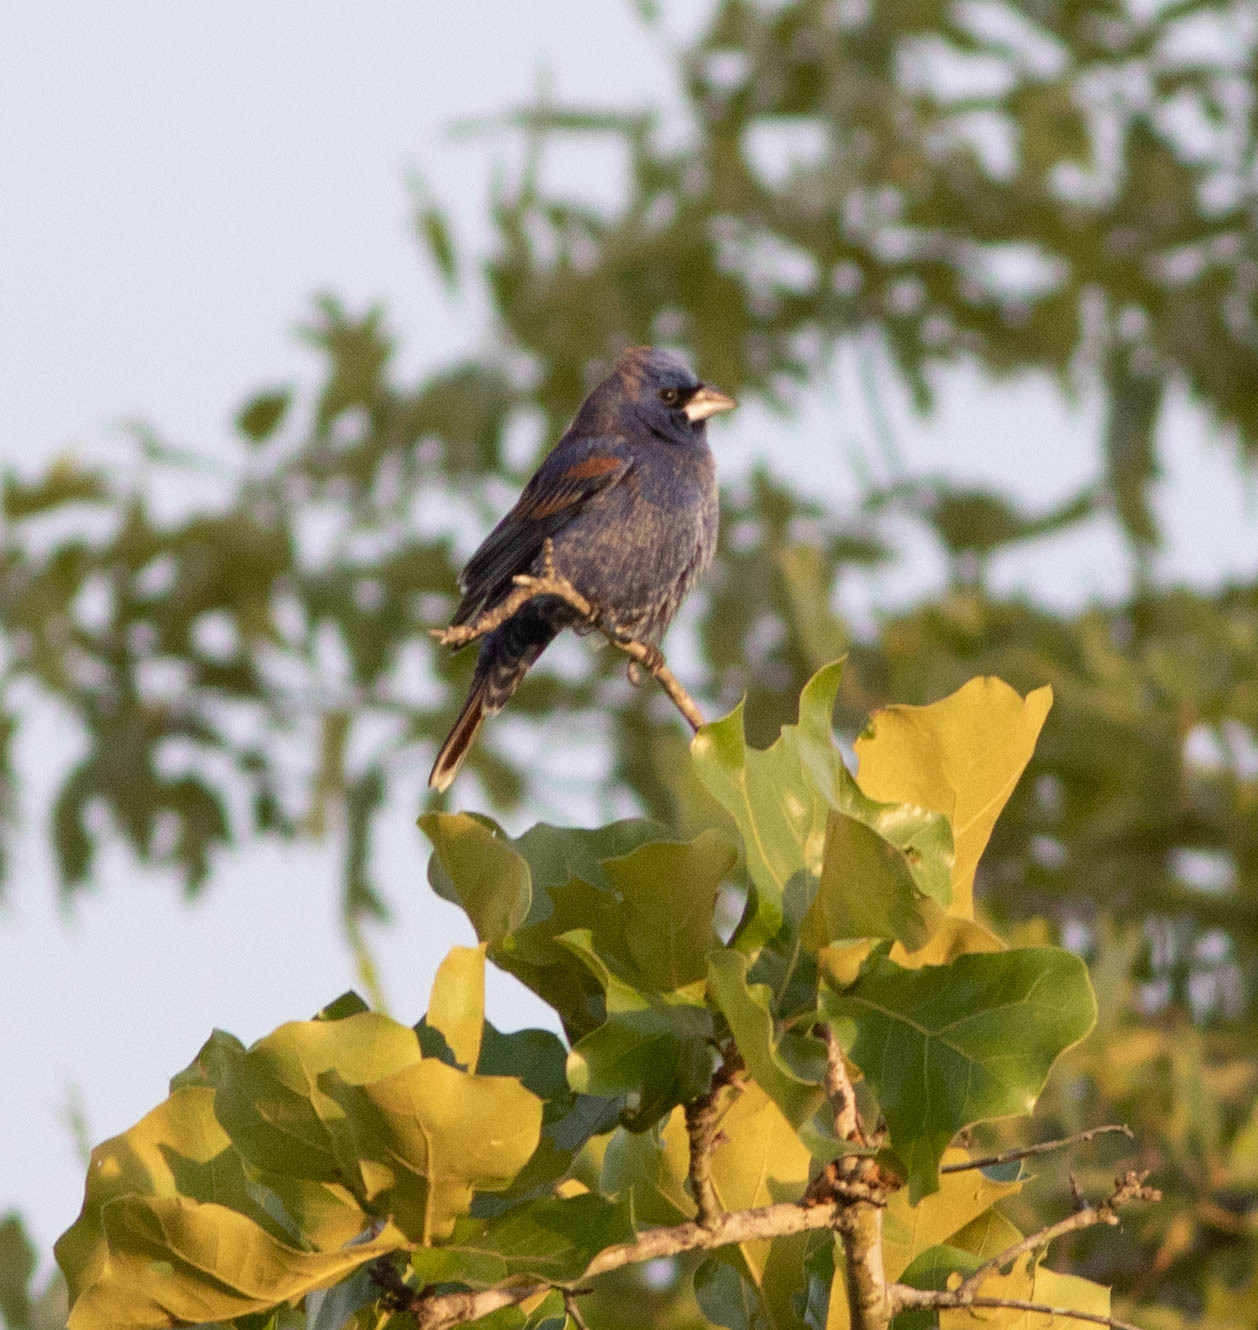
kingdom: Animalia
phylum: Chordata
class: Aves
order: Passeriformes
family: Cardinalidae
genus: Passerina
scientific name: Passerina caerulea
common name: Blue grosbeak
